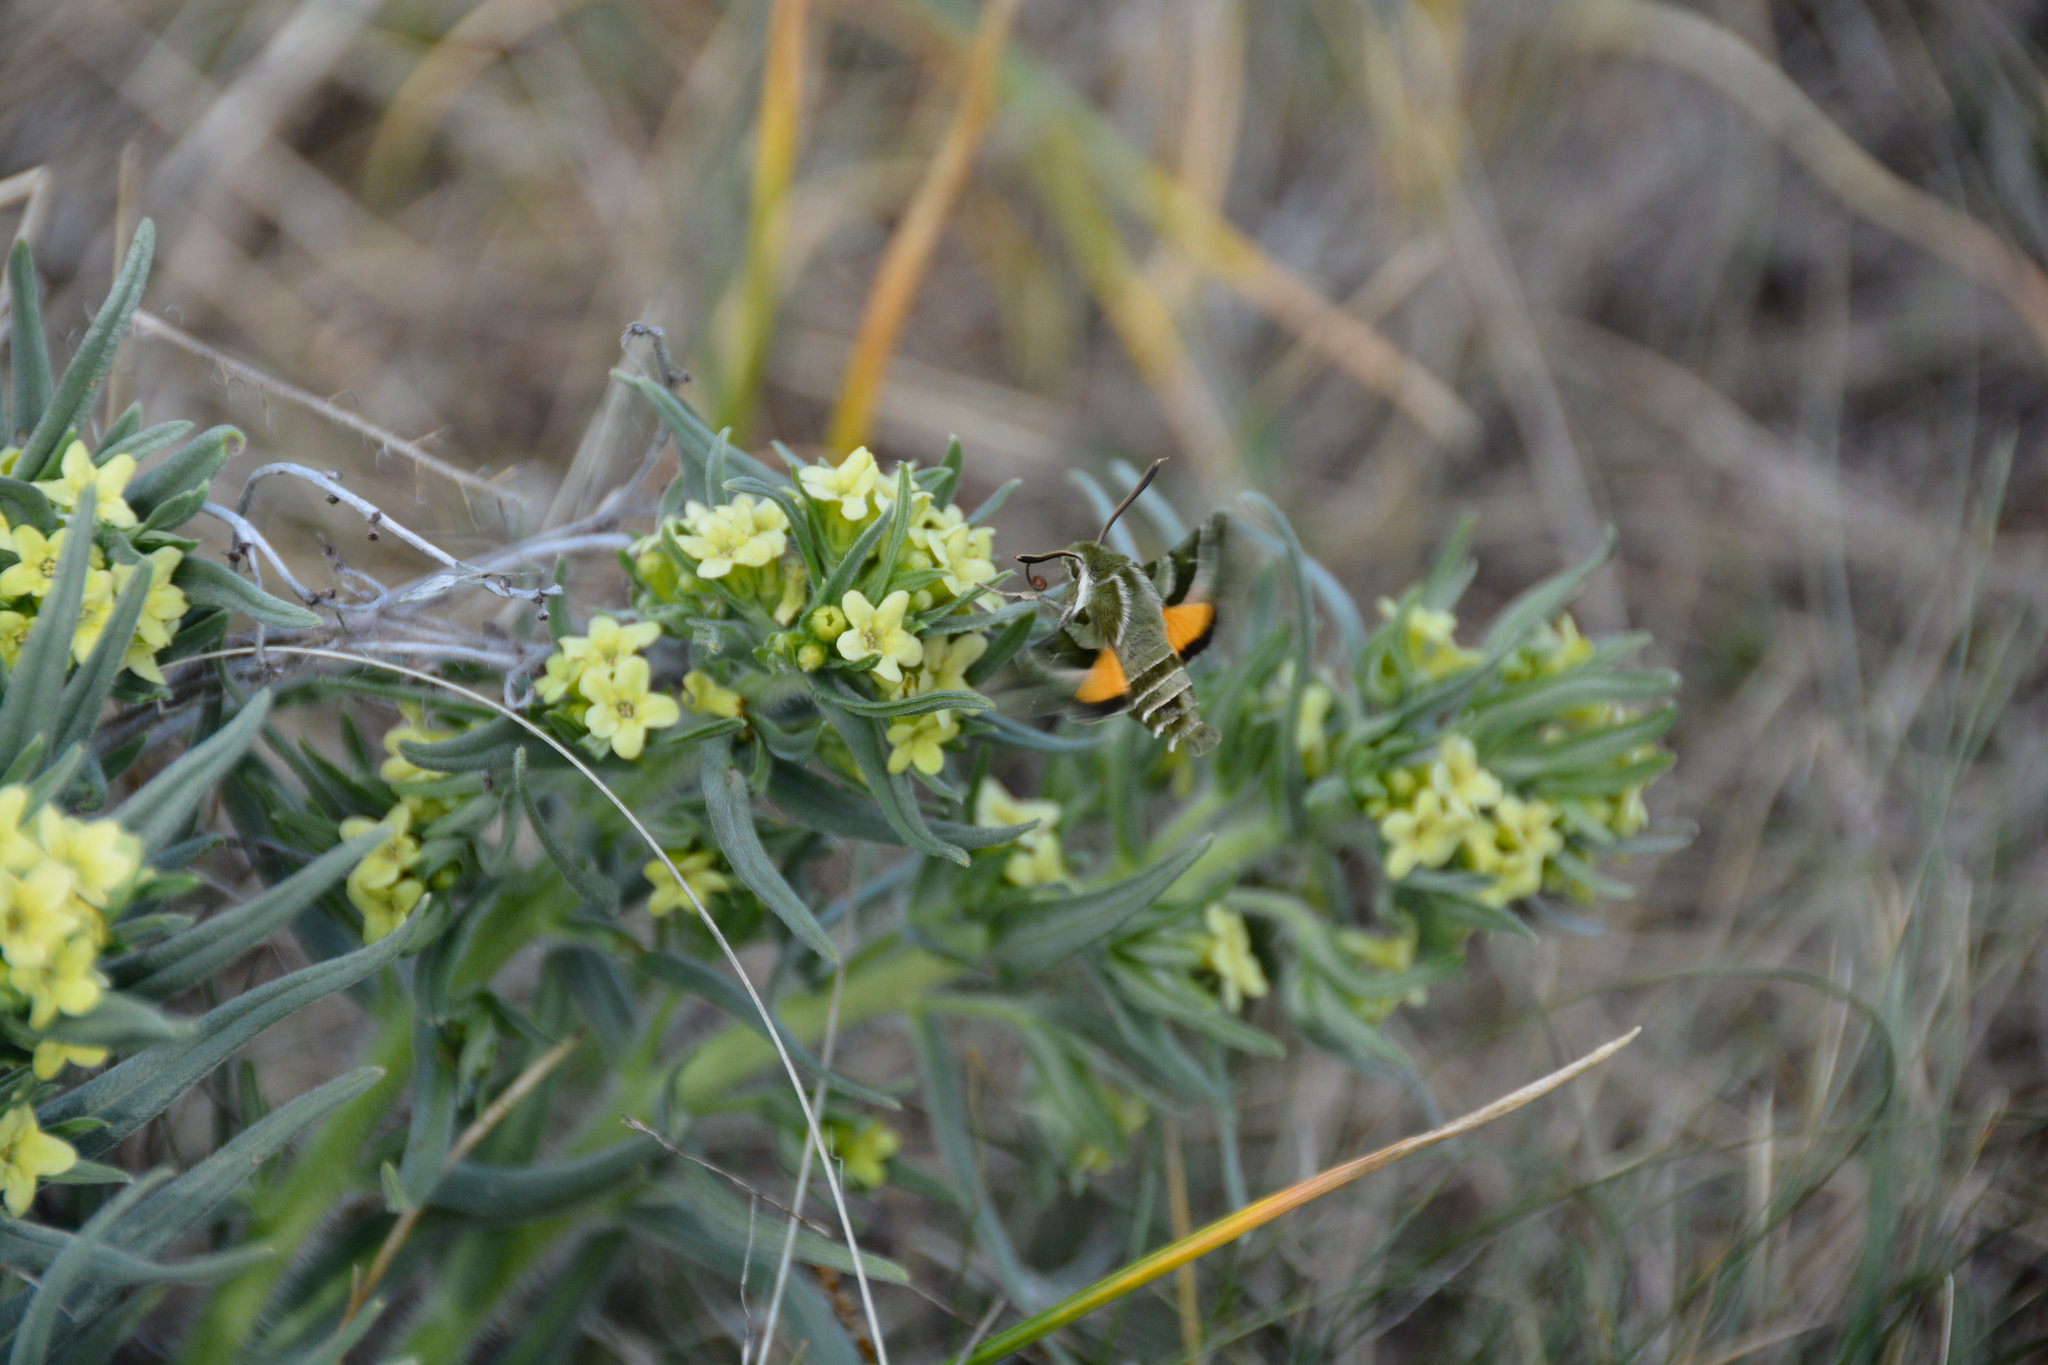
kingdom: Animalia
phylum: Arthropoda
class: Insecta
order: Lepidoptera
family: Sphingidae
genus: Proserpinus
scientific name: Proserpinus clarkiae
